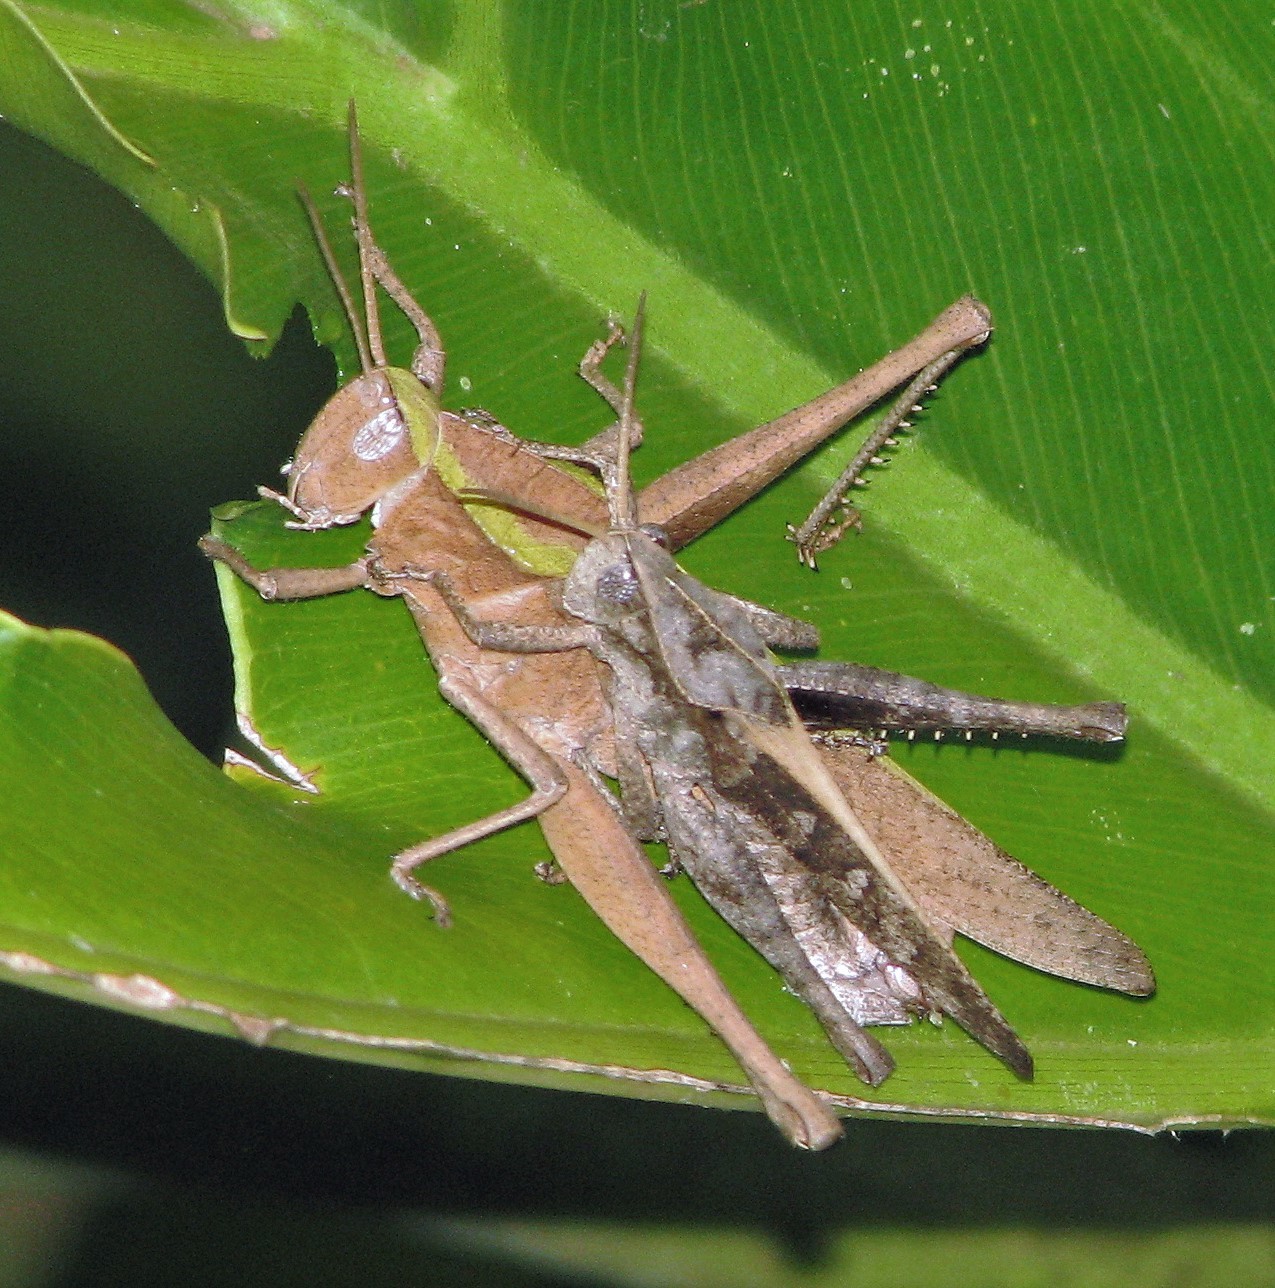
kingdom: Animalia
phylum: Arthropoda
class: Insecta
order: Orthoptera
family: Romaleidae
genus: Xyleus
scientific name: Xyleus discoideus
